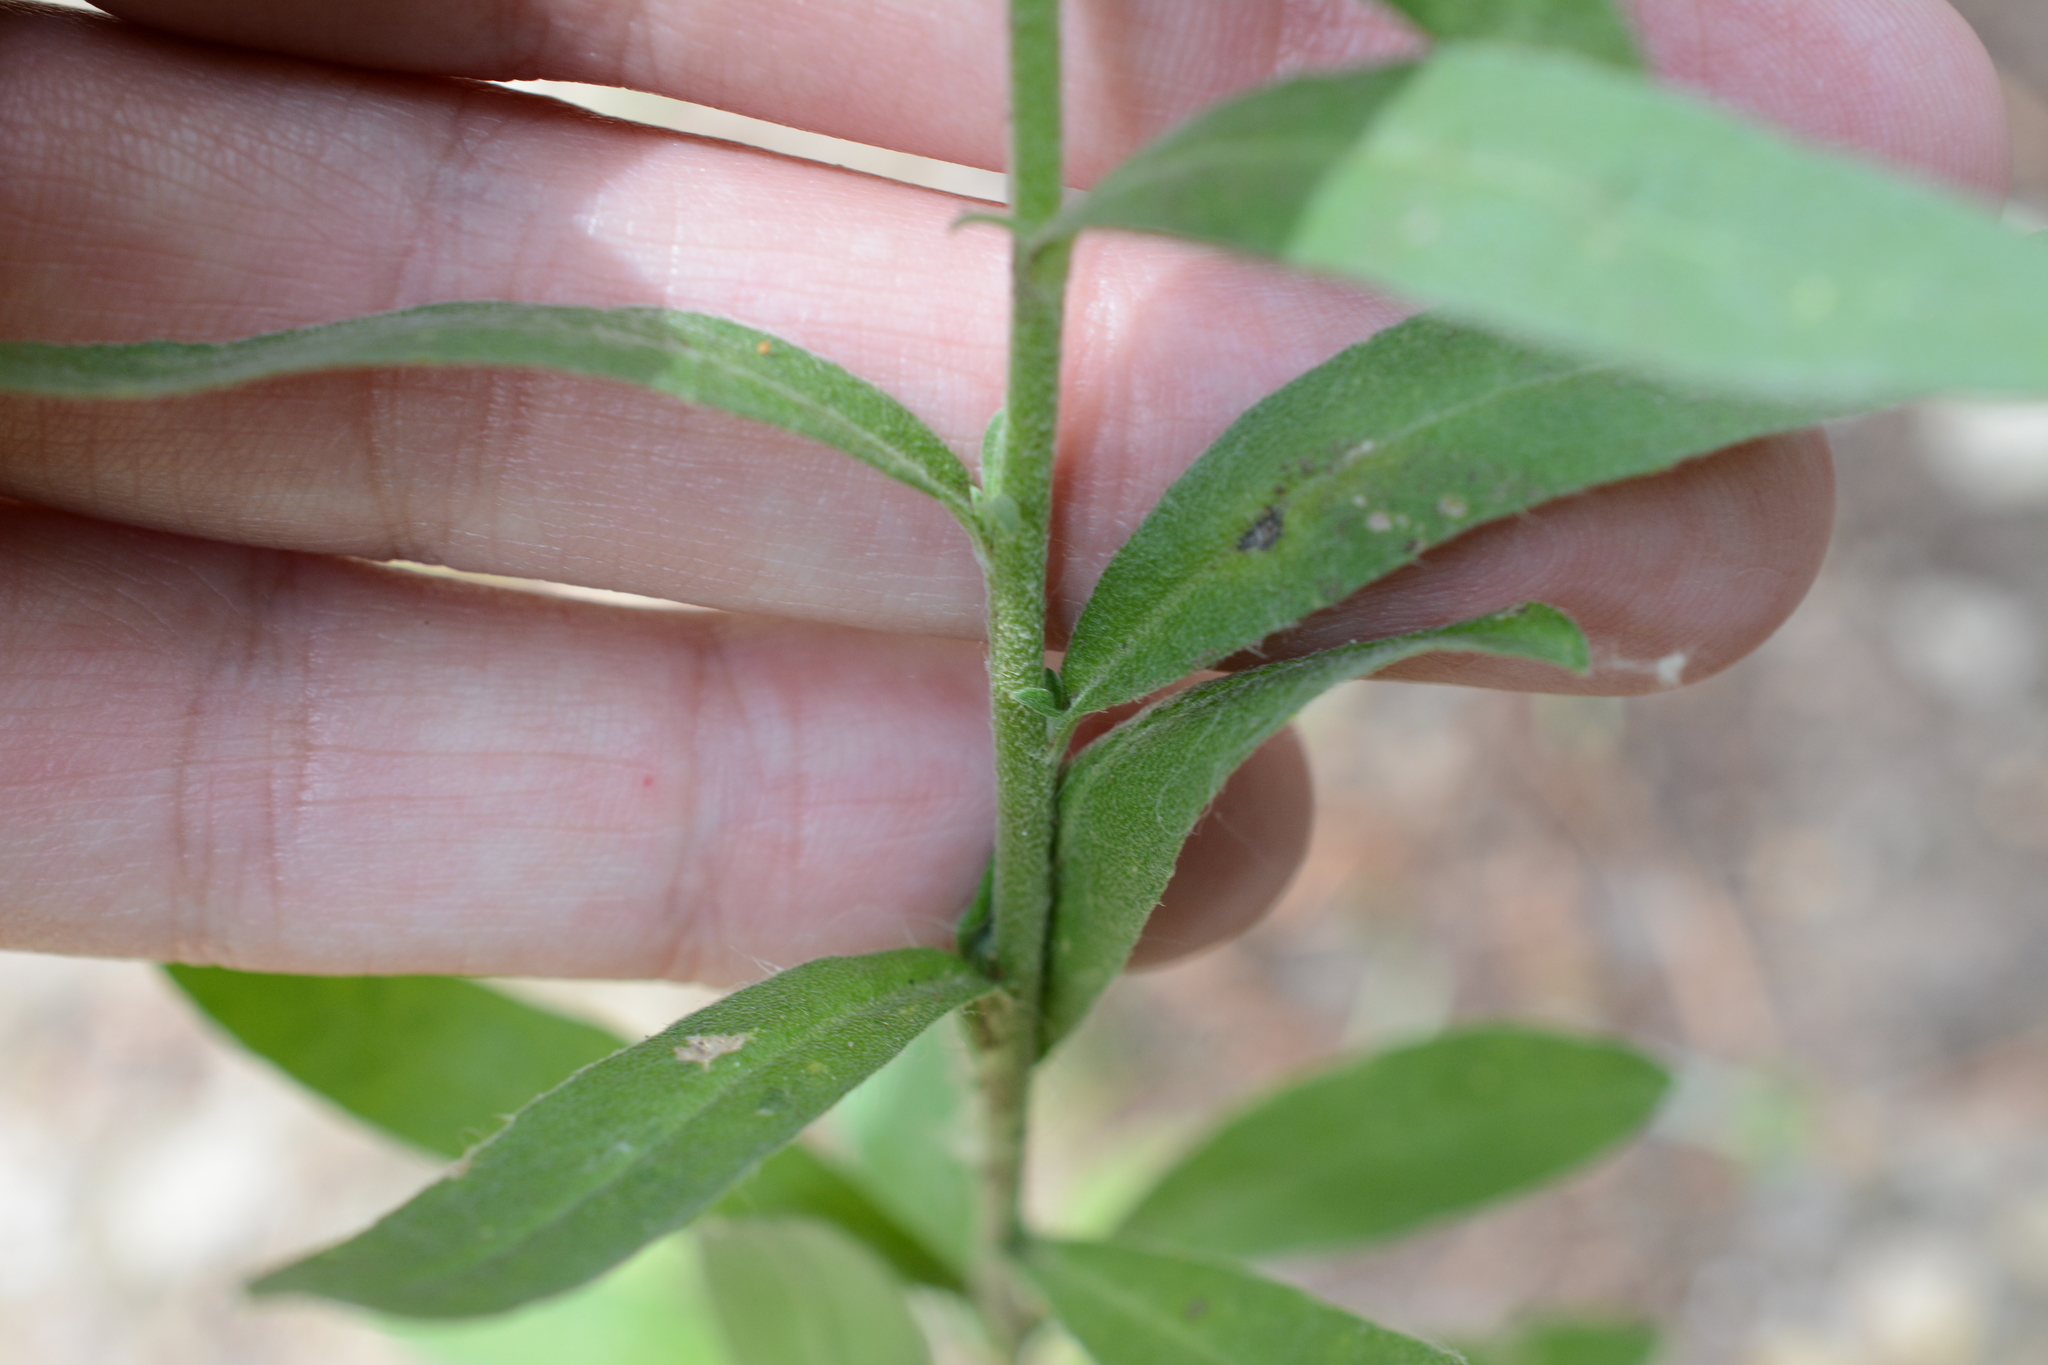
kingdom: Plantae
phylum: Tracheophyta
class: Magnoliopsida
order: Brassicales
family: Brassicaceae
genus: Berteroa
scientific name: Berteroa incana
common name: Hoary alison
